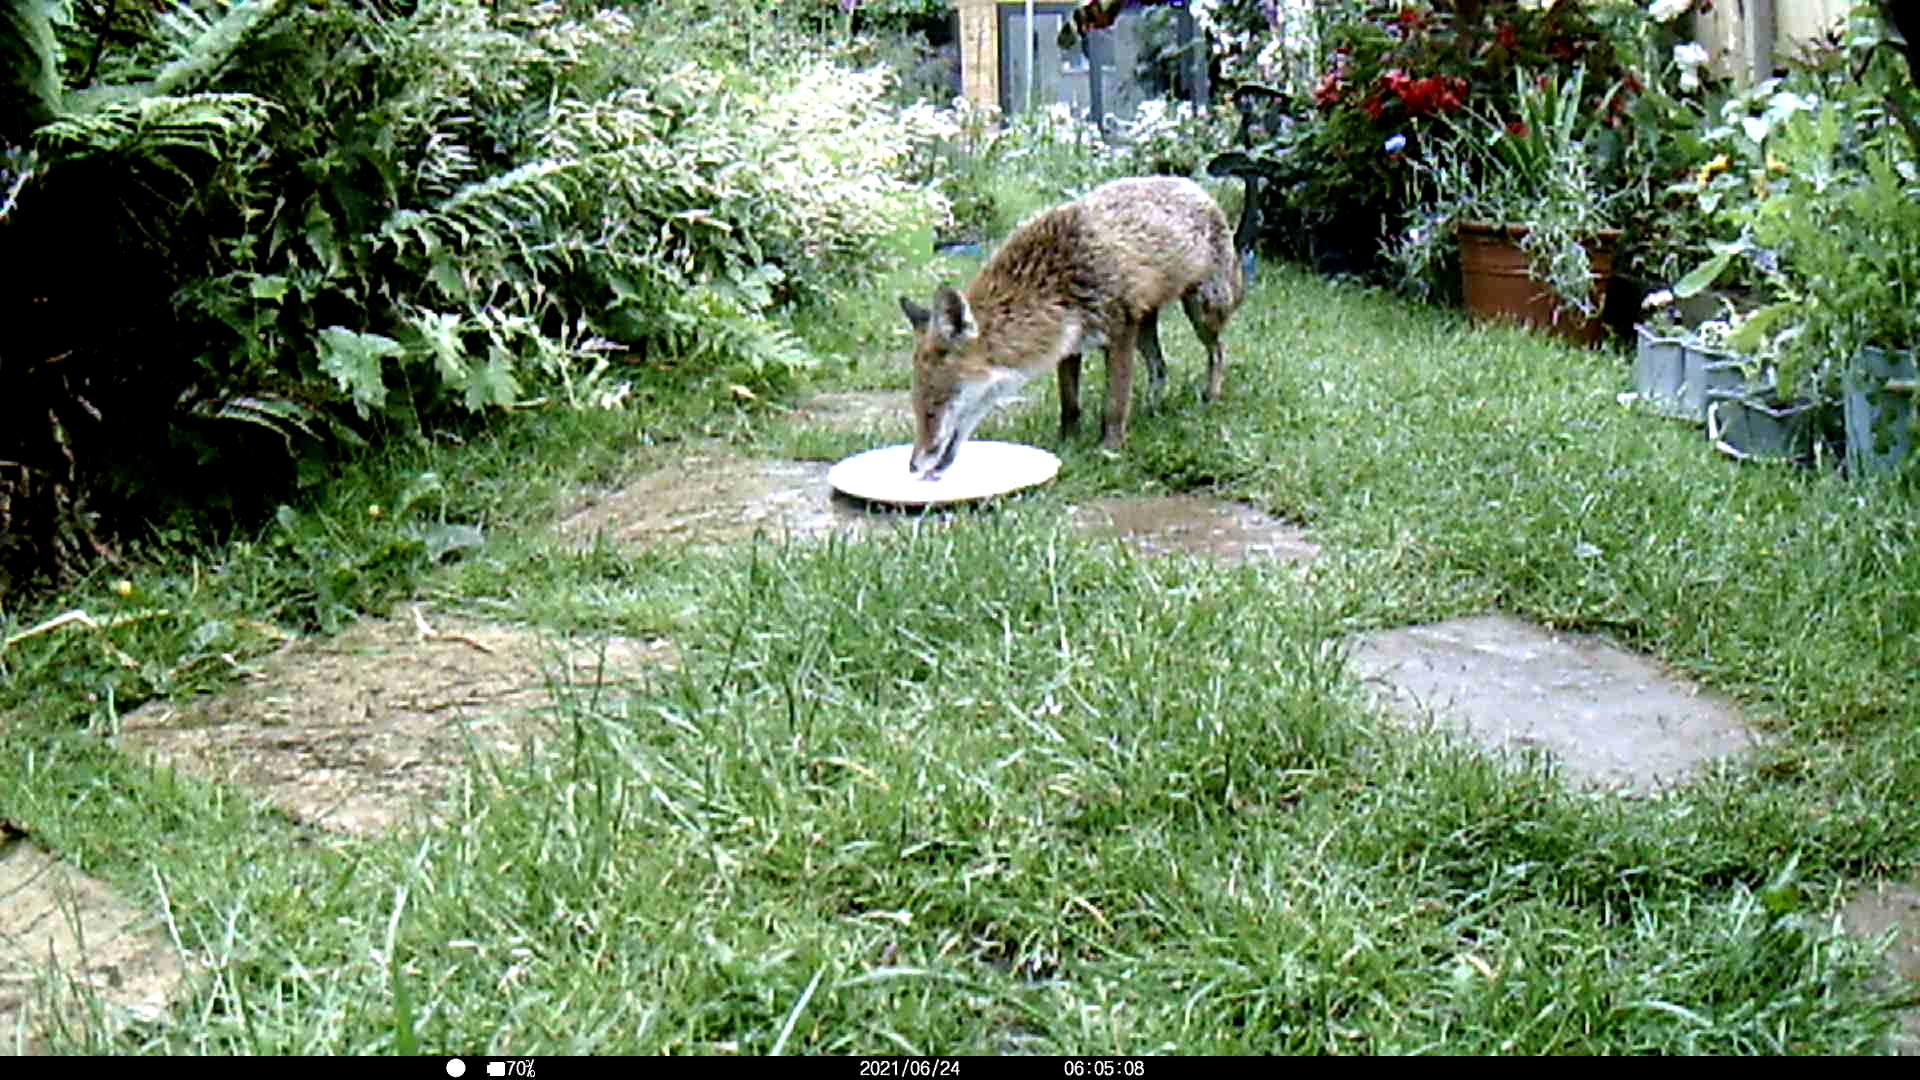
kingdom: Animalia
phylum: Chordata
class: Mammalia
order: Carnivora
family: Canidae
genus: Vulpes
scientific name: Vulpes vulpes
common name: Red fox
